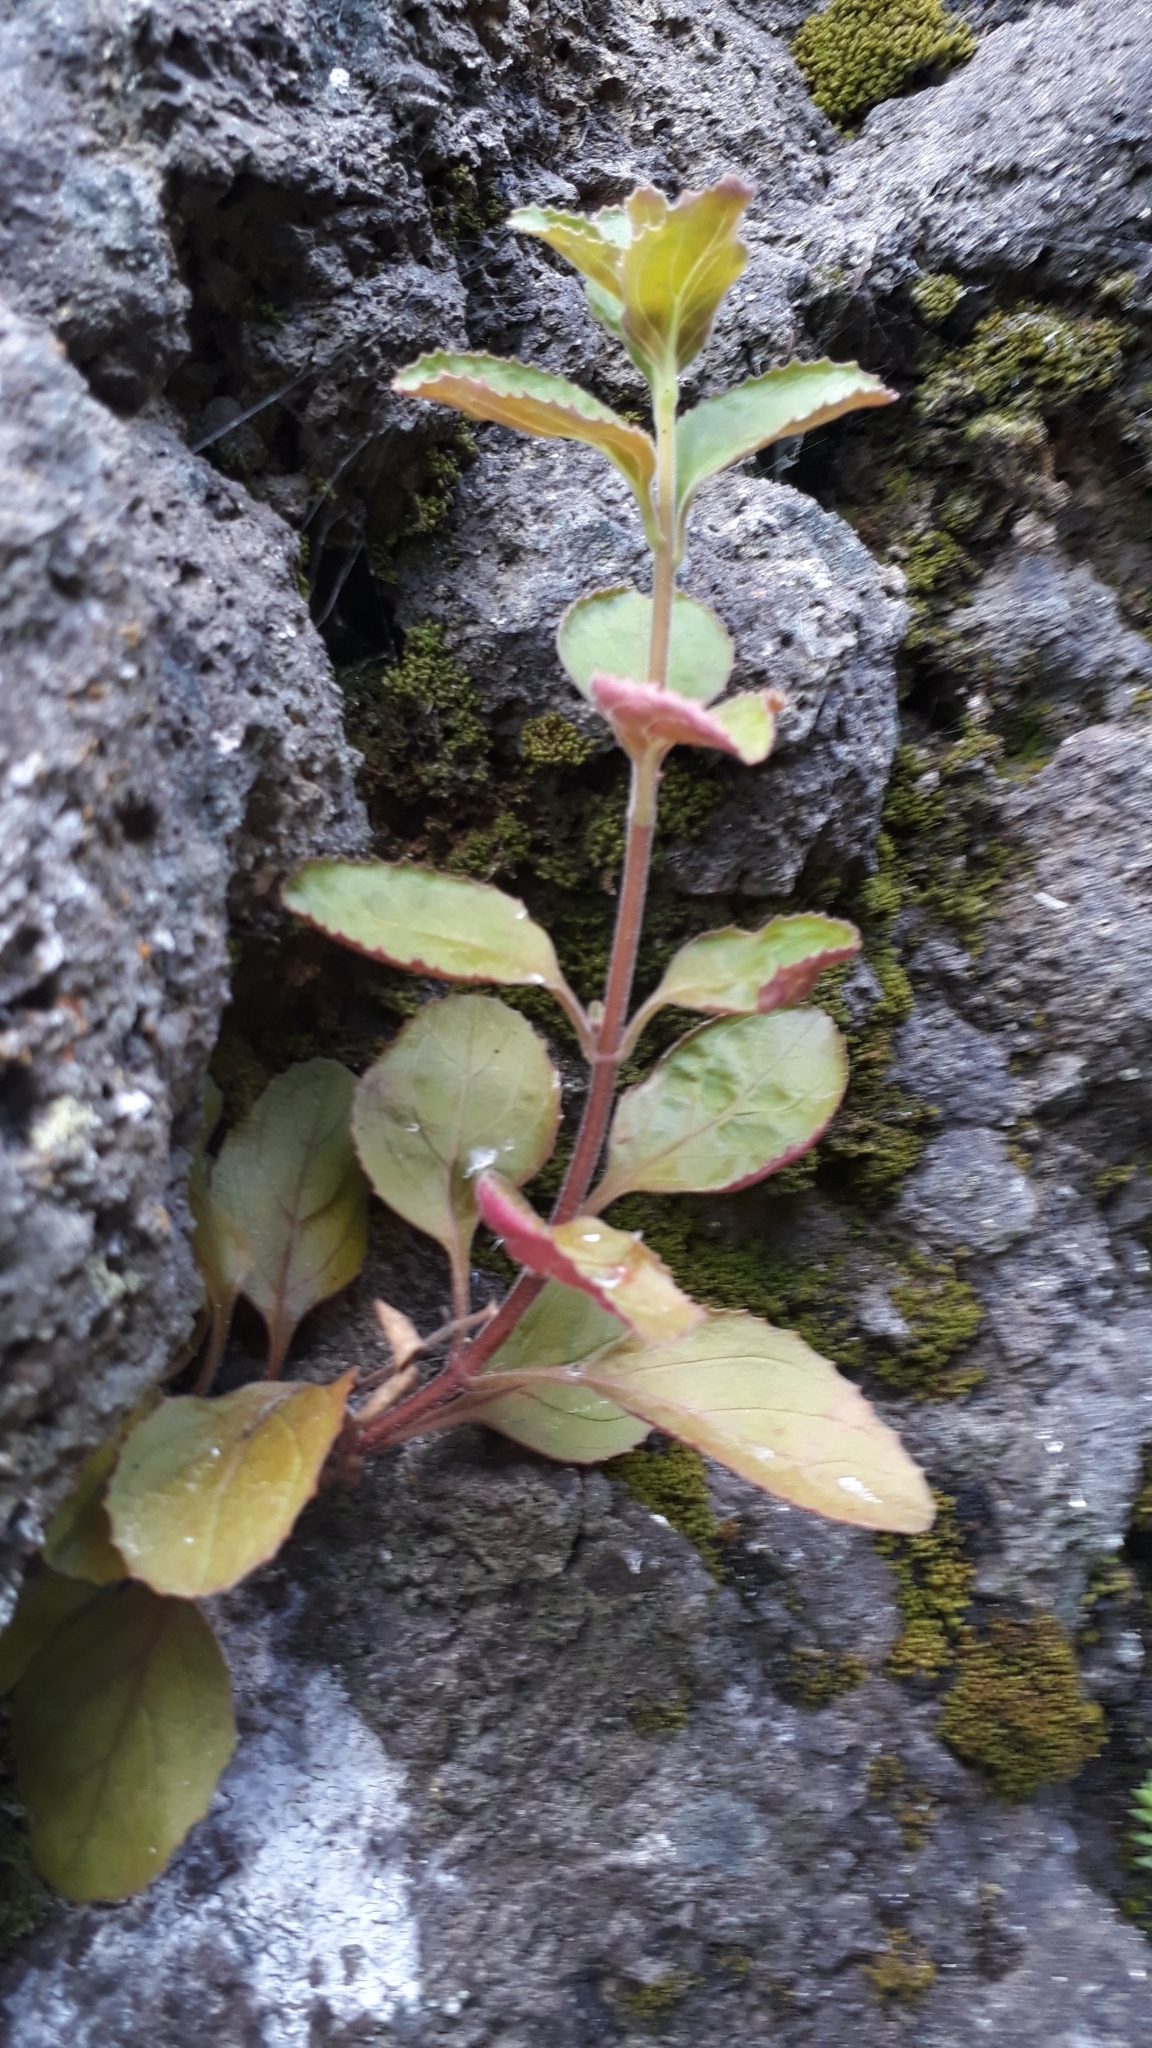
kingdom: Plantae
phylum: Tracheophyta
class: Magnoliopsida
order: Myrtales
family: Onagraceae
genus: Epilobium
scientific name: Epilobium pubens
